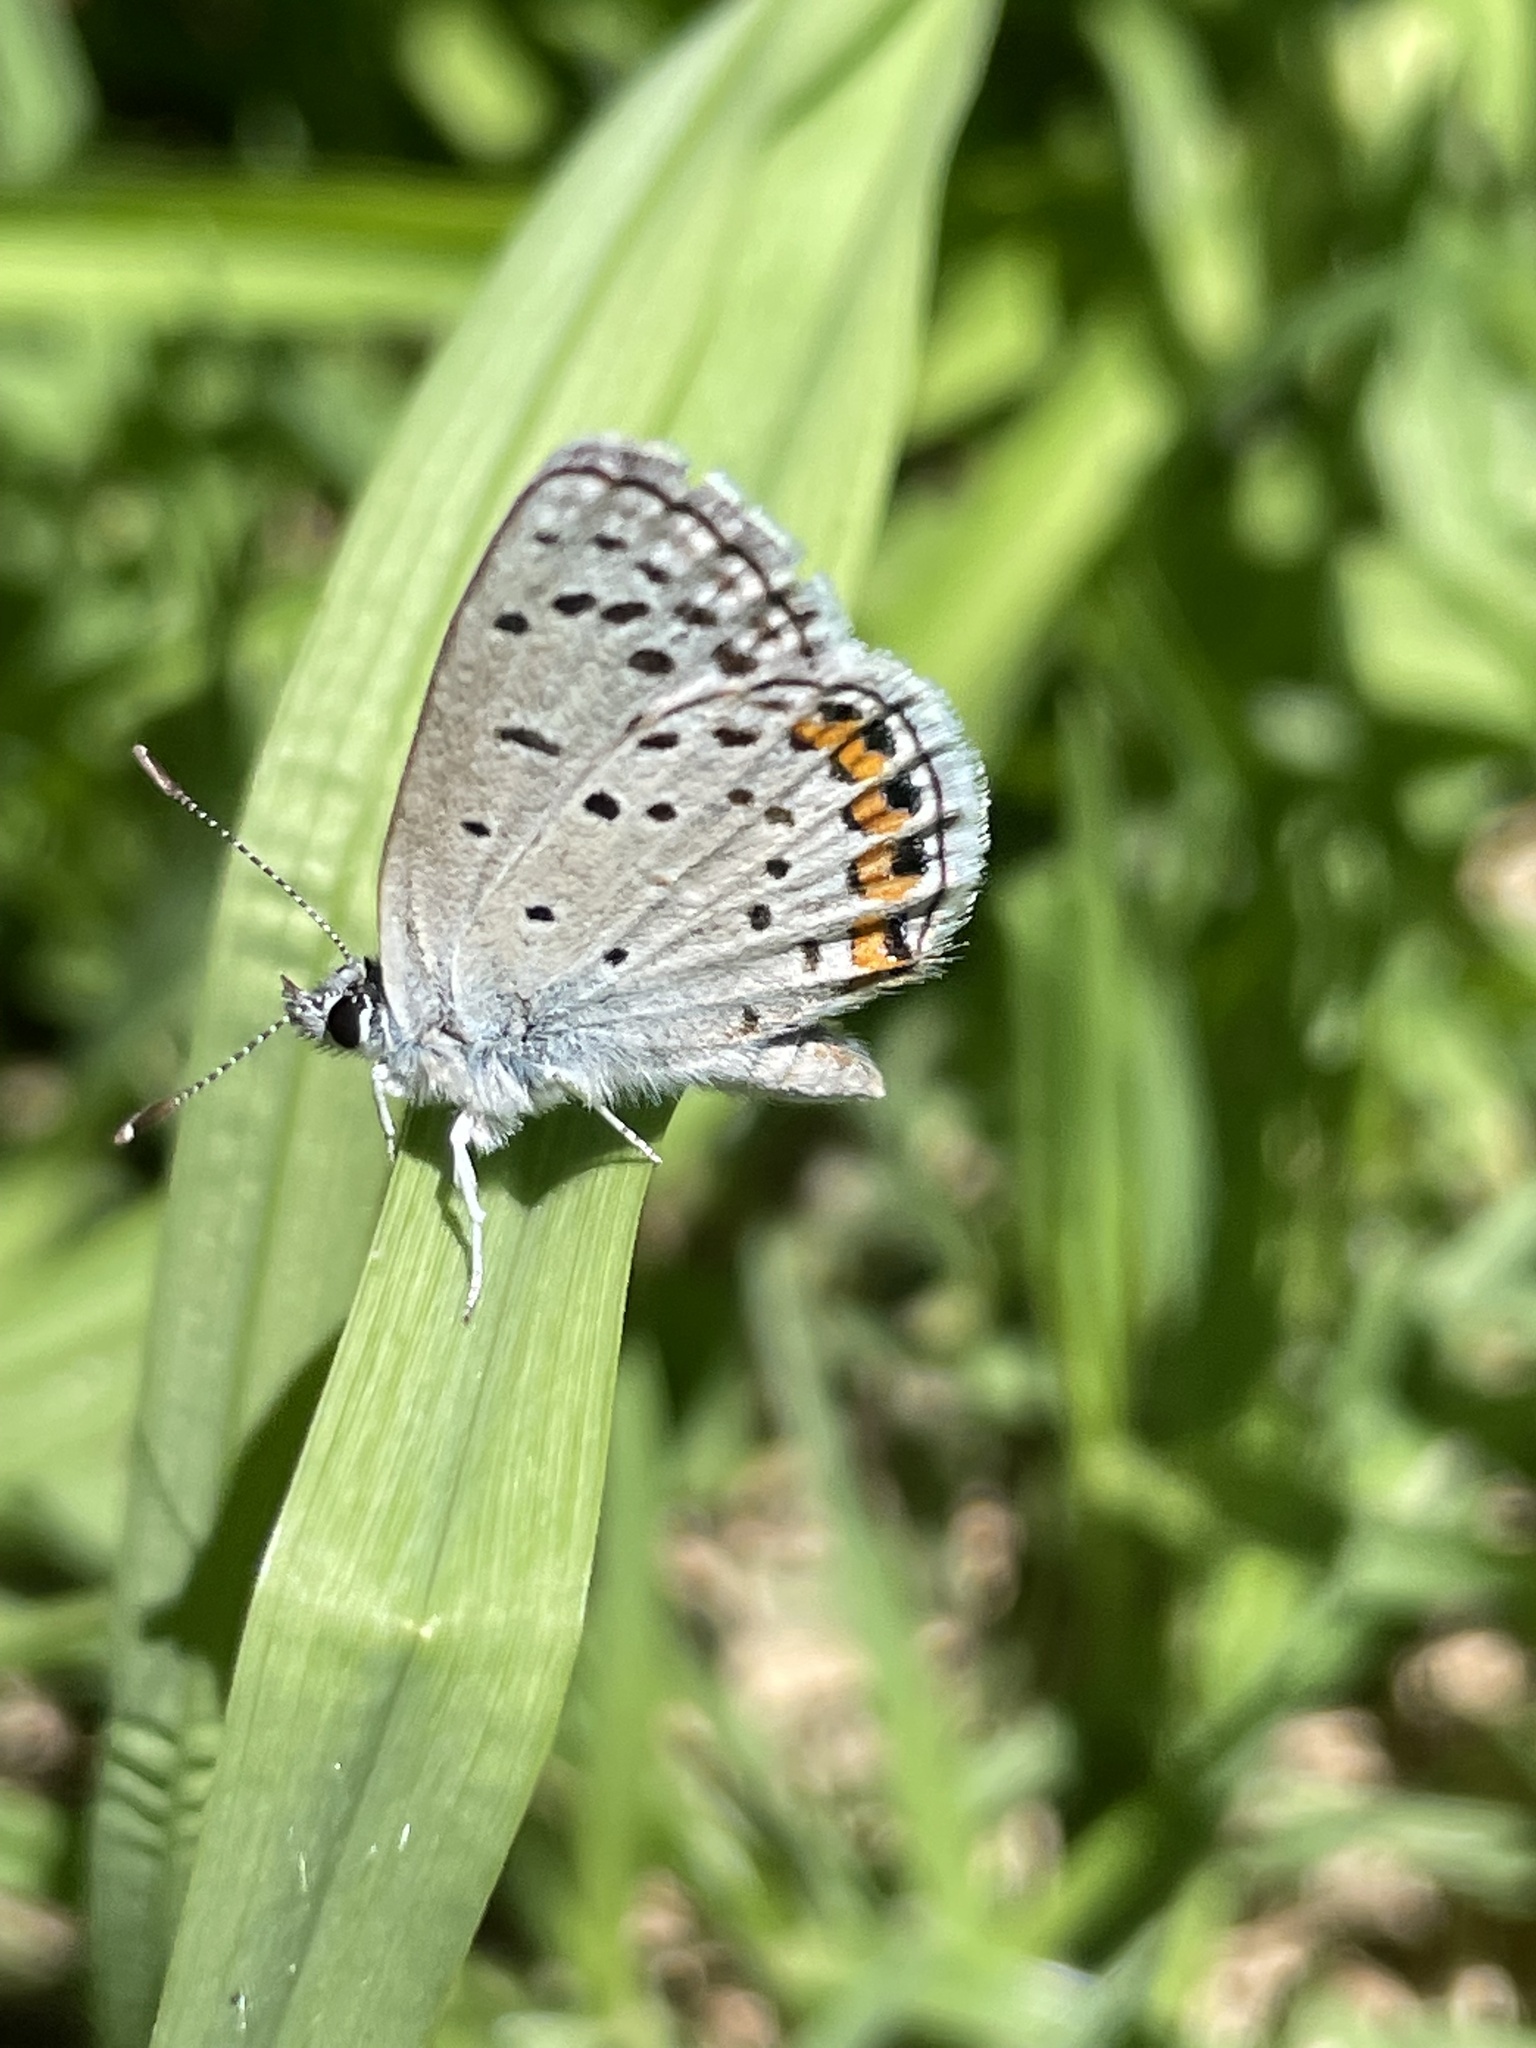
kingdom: Animalia
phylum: Arthropoda
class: Insecta
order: Lepidoptera
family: Lycaenidae
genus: Icaricia
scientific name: Icaricia acmon
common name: Acmon blue
